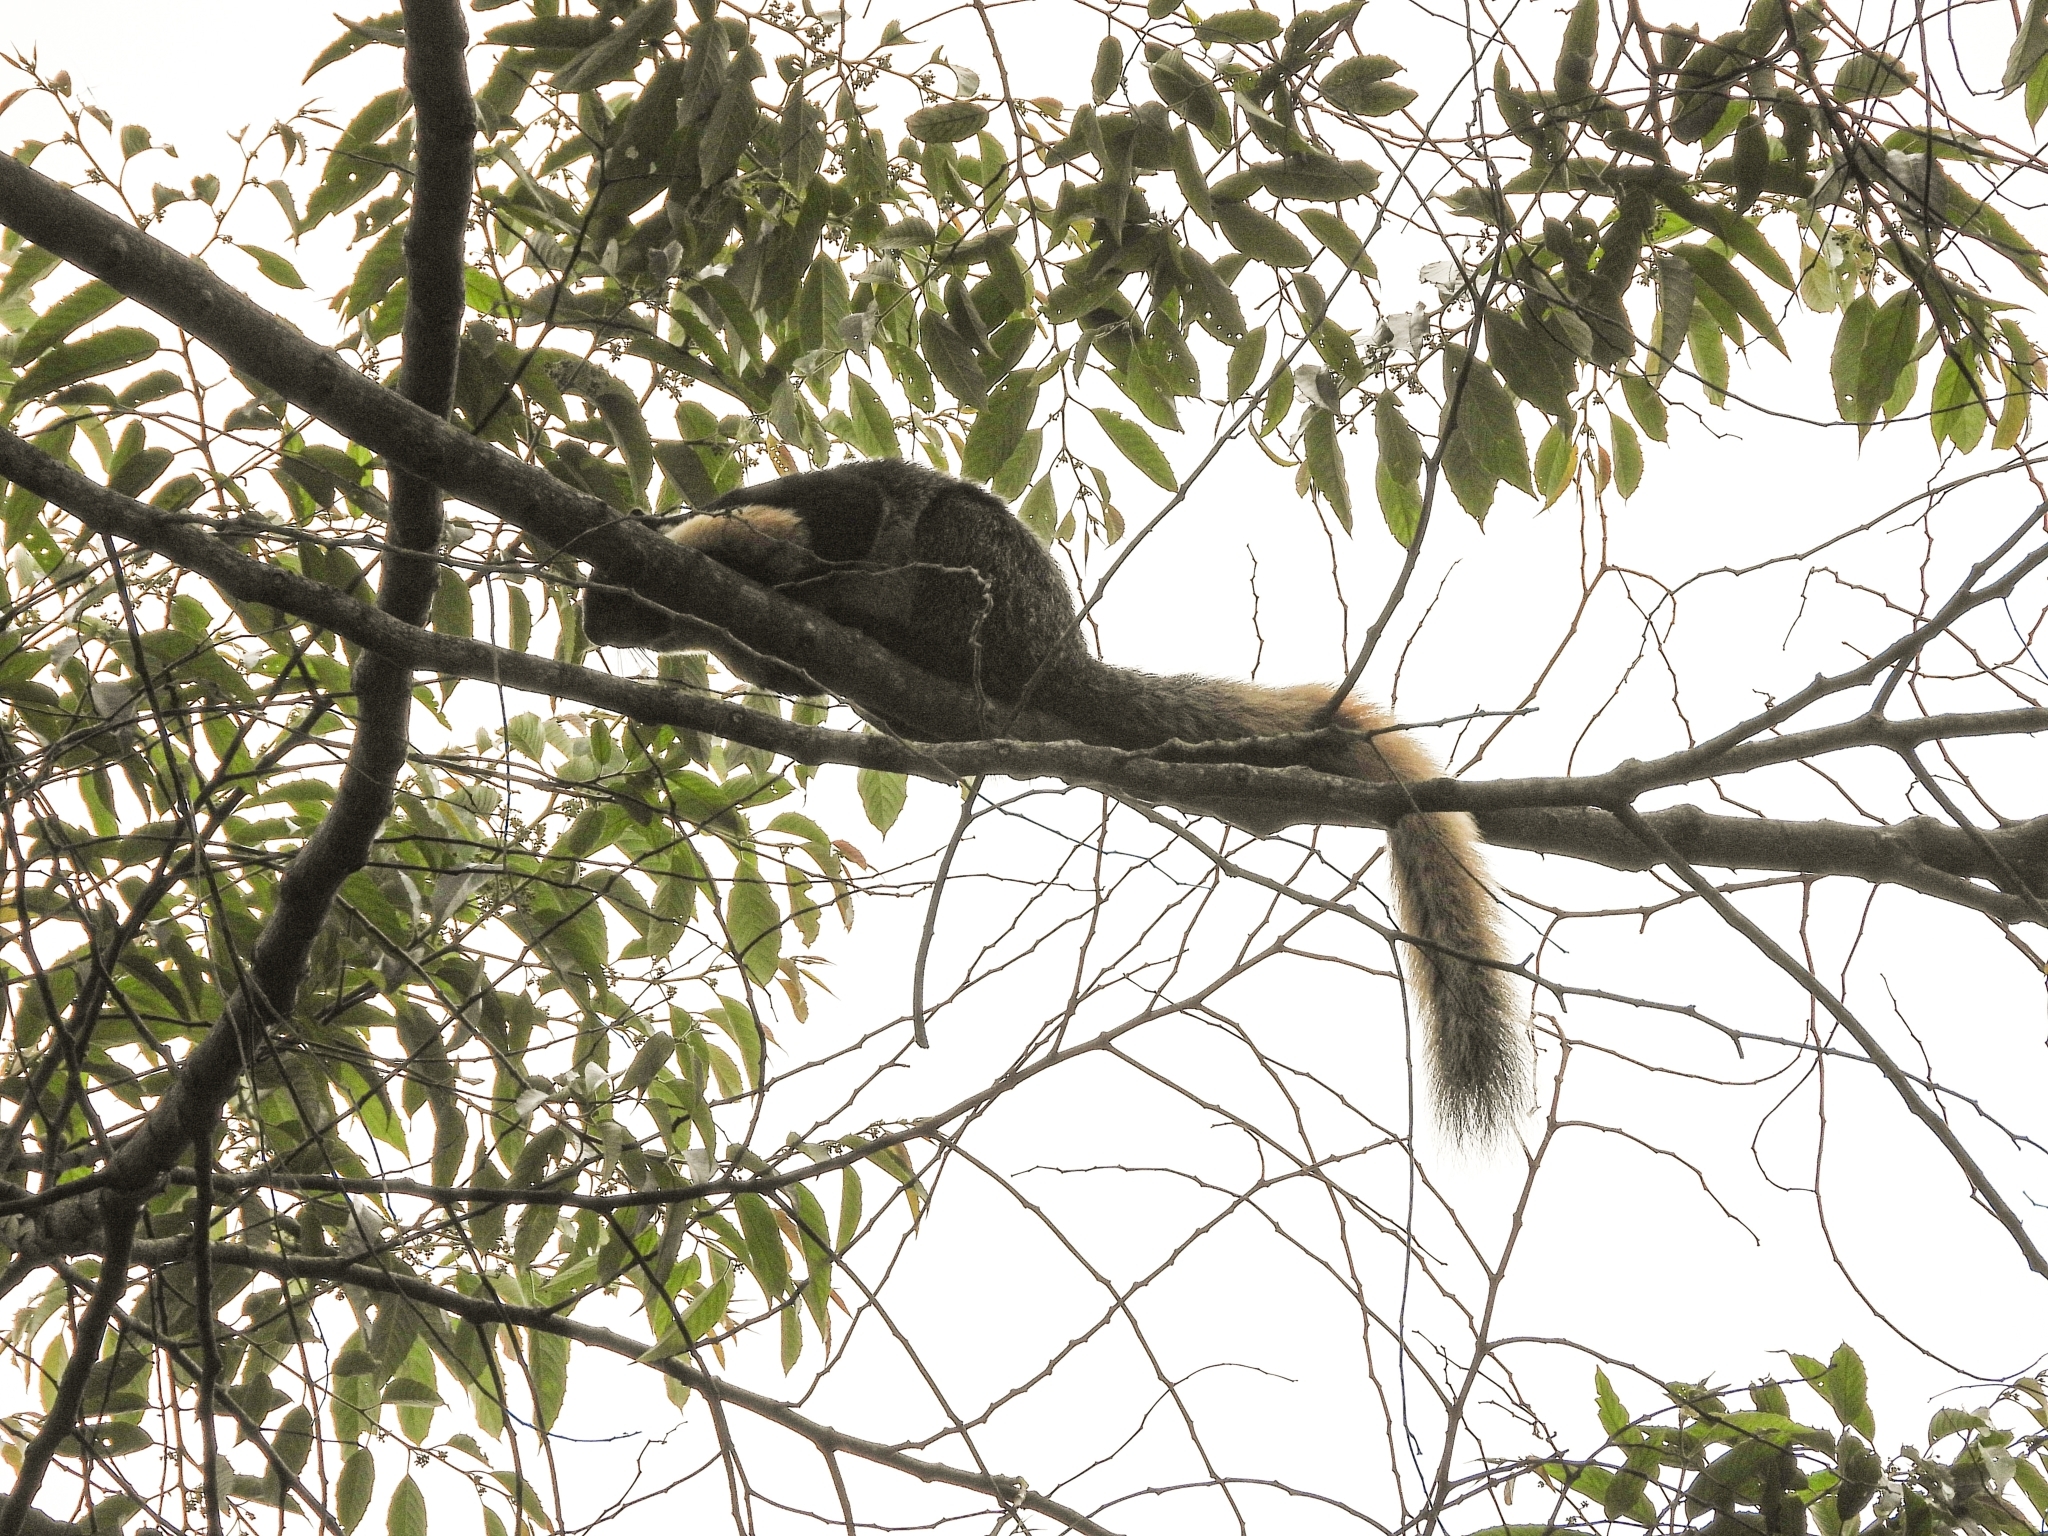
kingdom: Animalia
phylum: Chordata
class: Mammalia
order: Rodentia
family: Sciuridae
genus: Ratufa
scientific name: Ratufa bicolor
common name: Black giant squirrel
